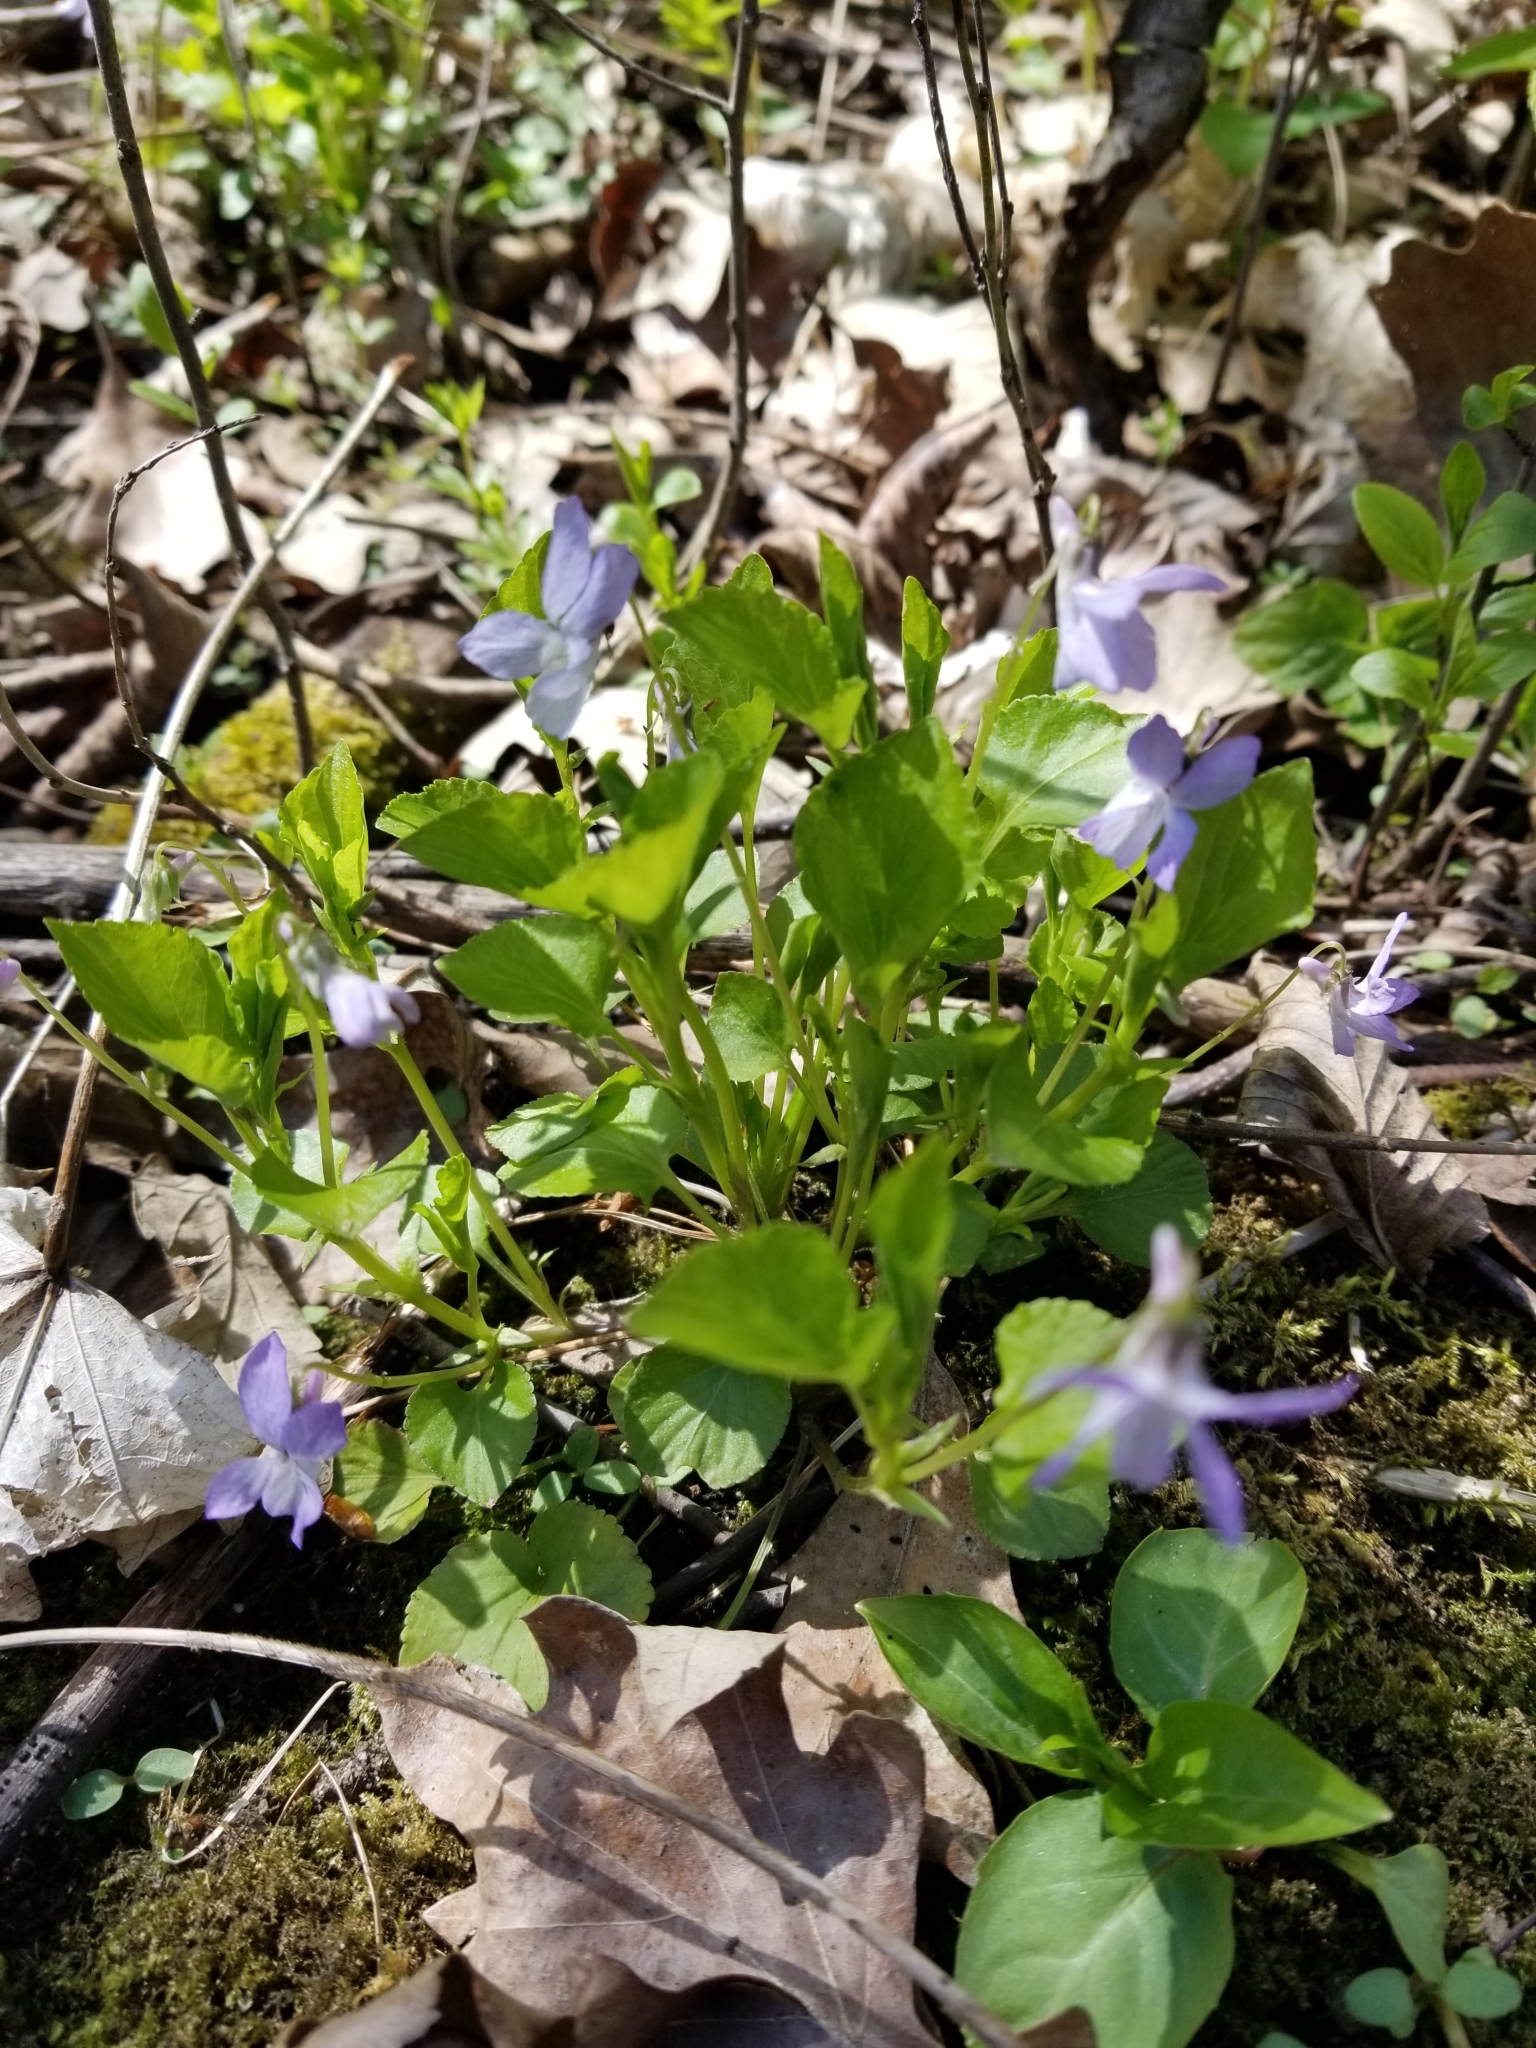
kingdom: Plantae
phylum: Tracheophyta
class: Magnoliopsida
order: Malpighiales
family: Violaceae
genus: Viola
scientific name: Viola labradorica
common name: Labrador violet
